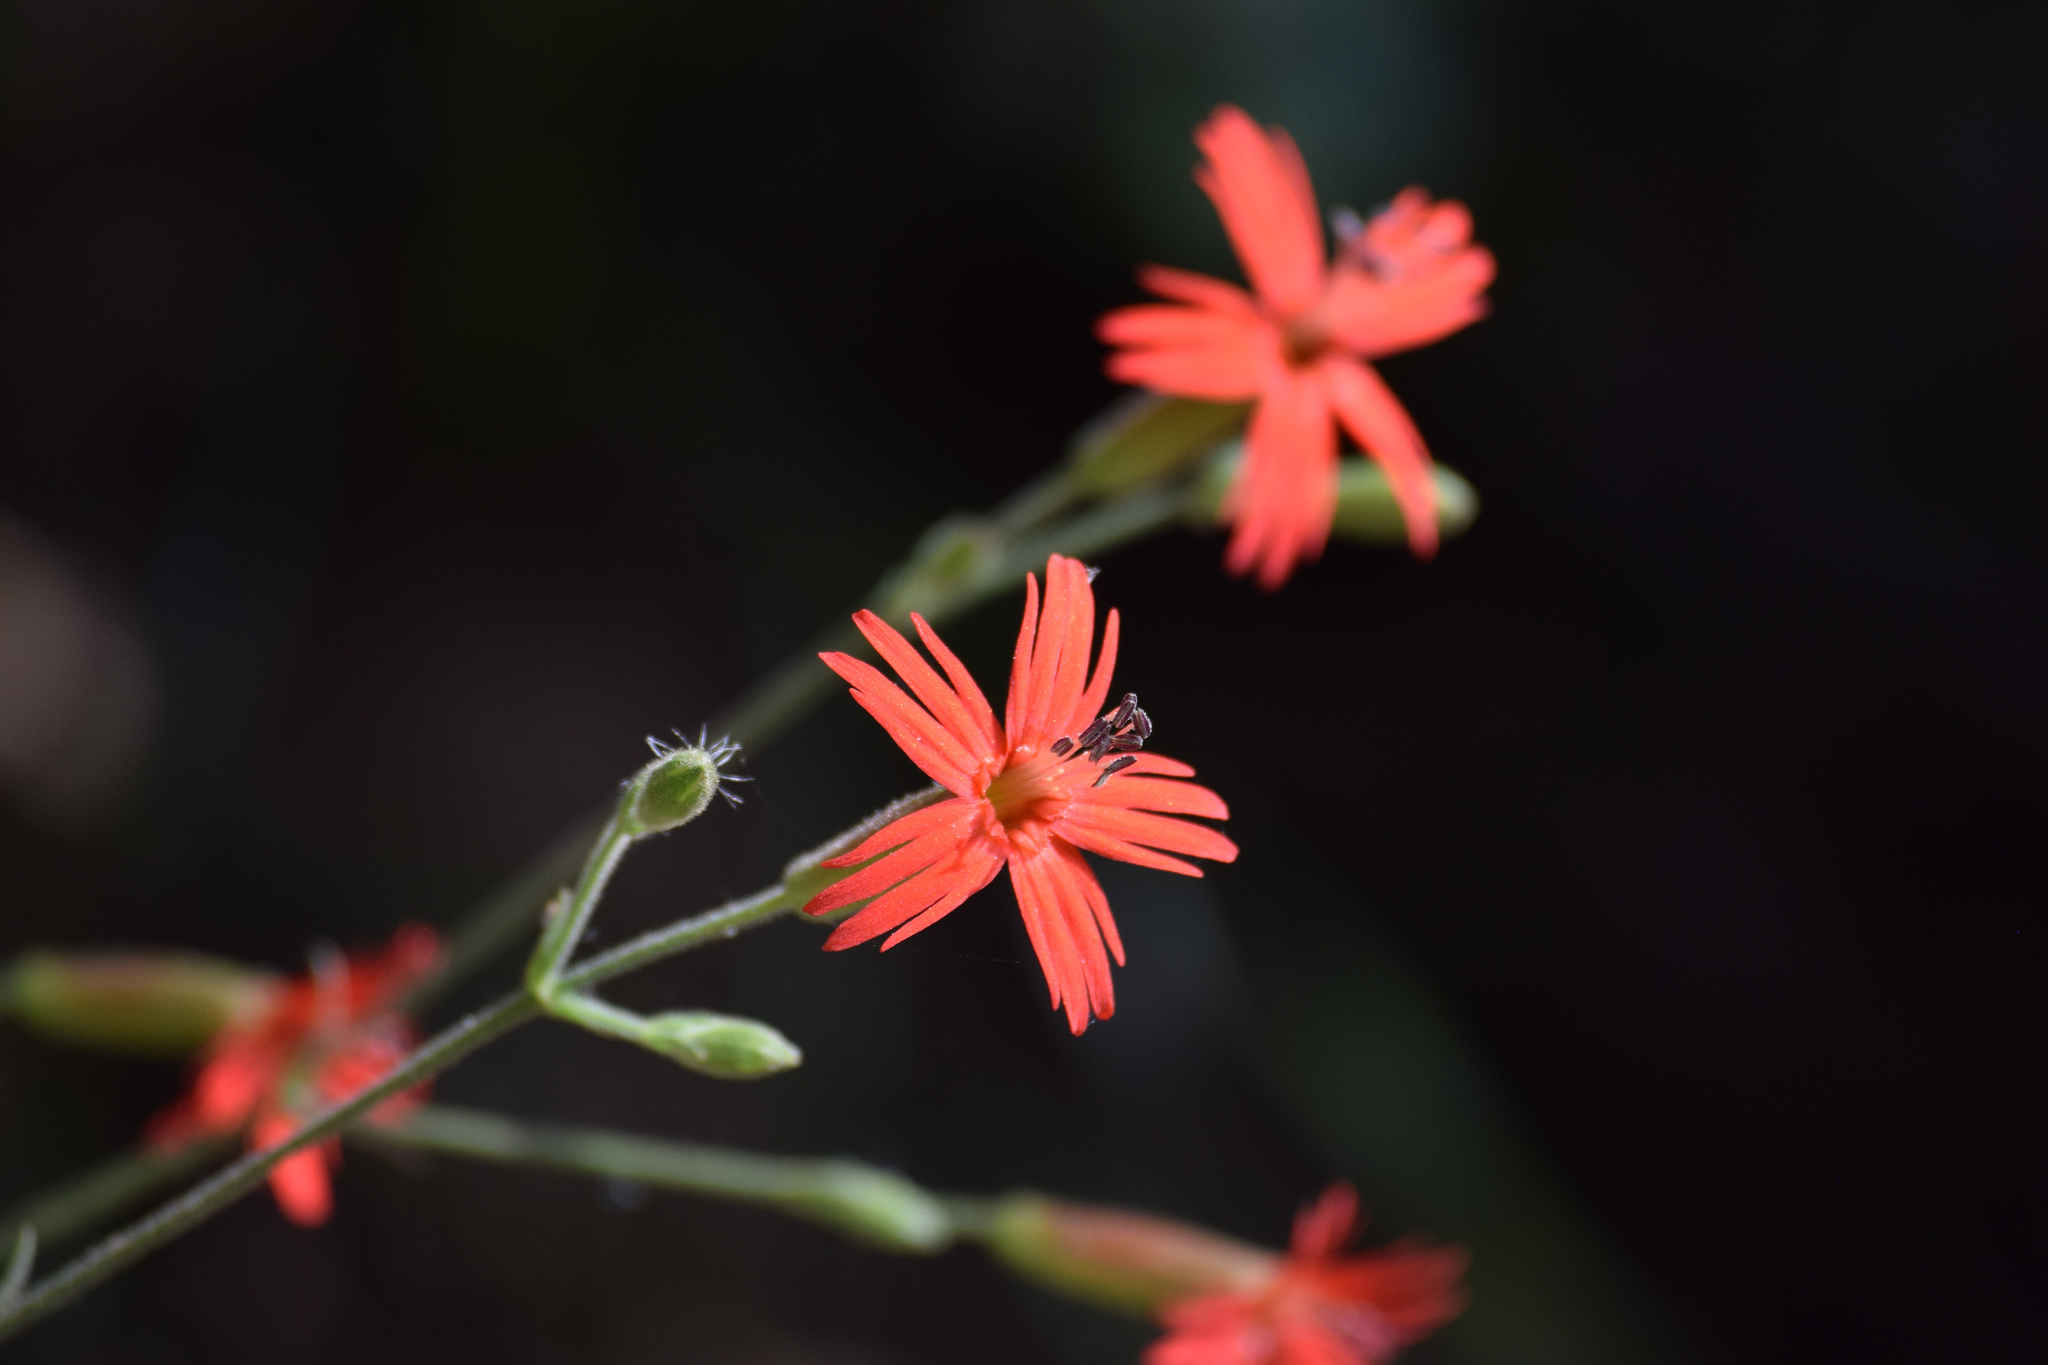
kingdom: Plantae
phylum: Tracheophyta
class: Magnoliopsida
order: Caryophyllales
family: Caryophyllaceae
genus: Silene
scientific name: Silene laciniata
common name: Indian-pink
